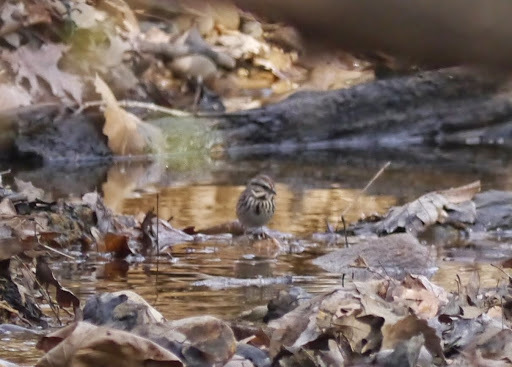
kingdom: Animalia
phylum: Chordata
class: Aves
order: Passeriformes
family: Passerellidae
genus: Melospiza
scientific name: Melospiza melodia
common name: Song sparrow
